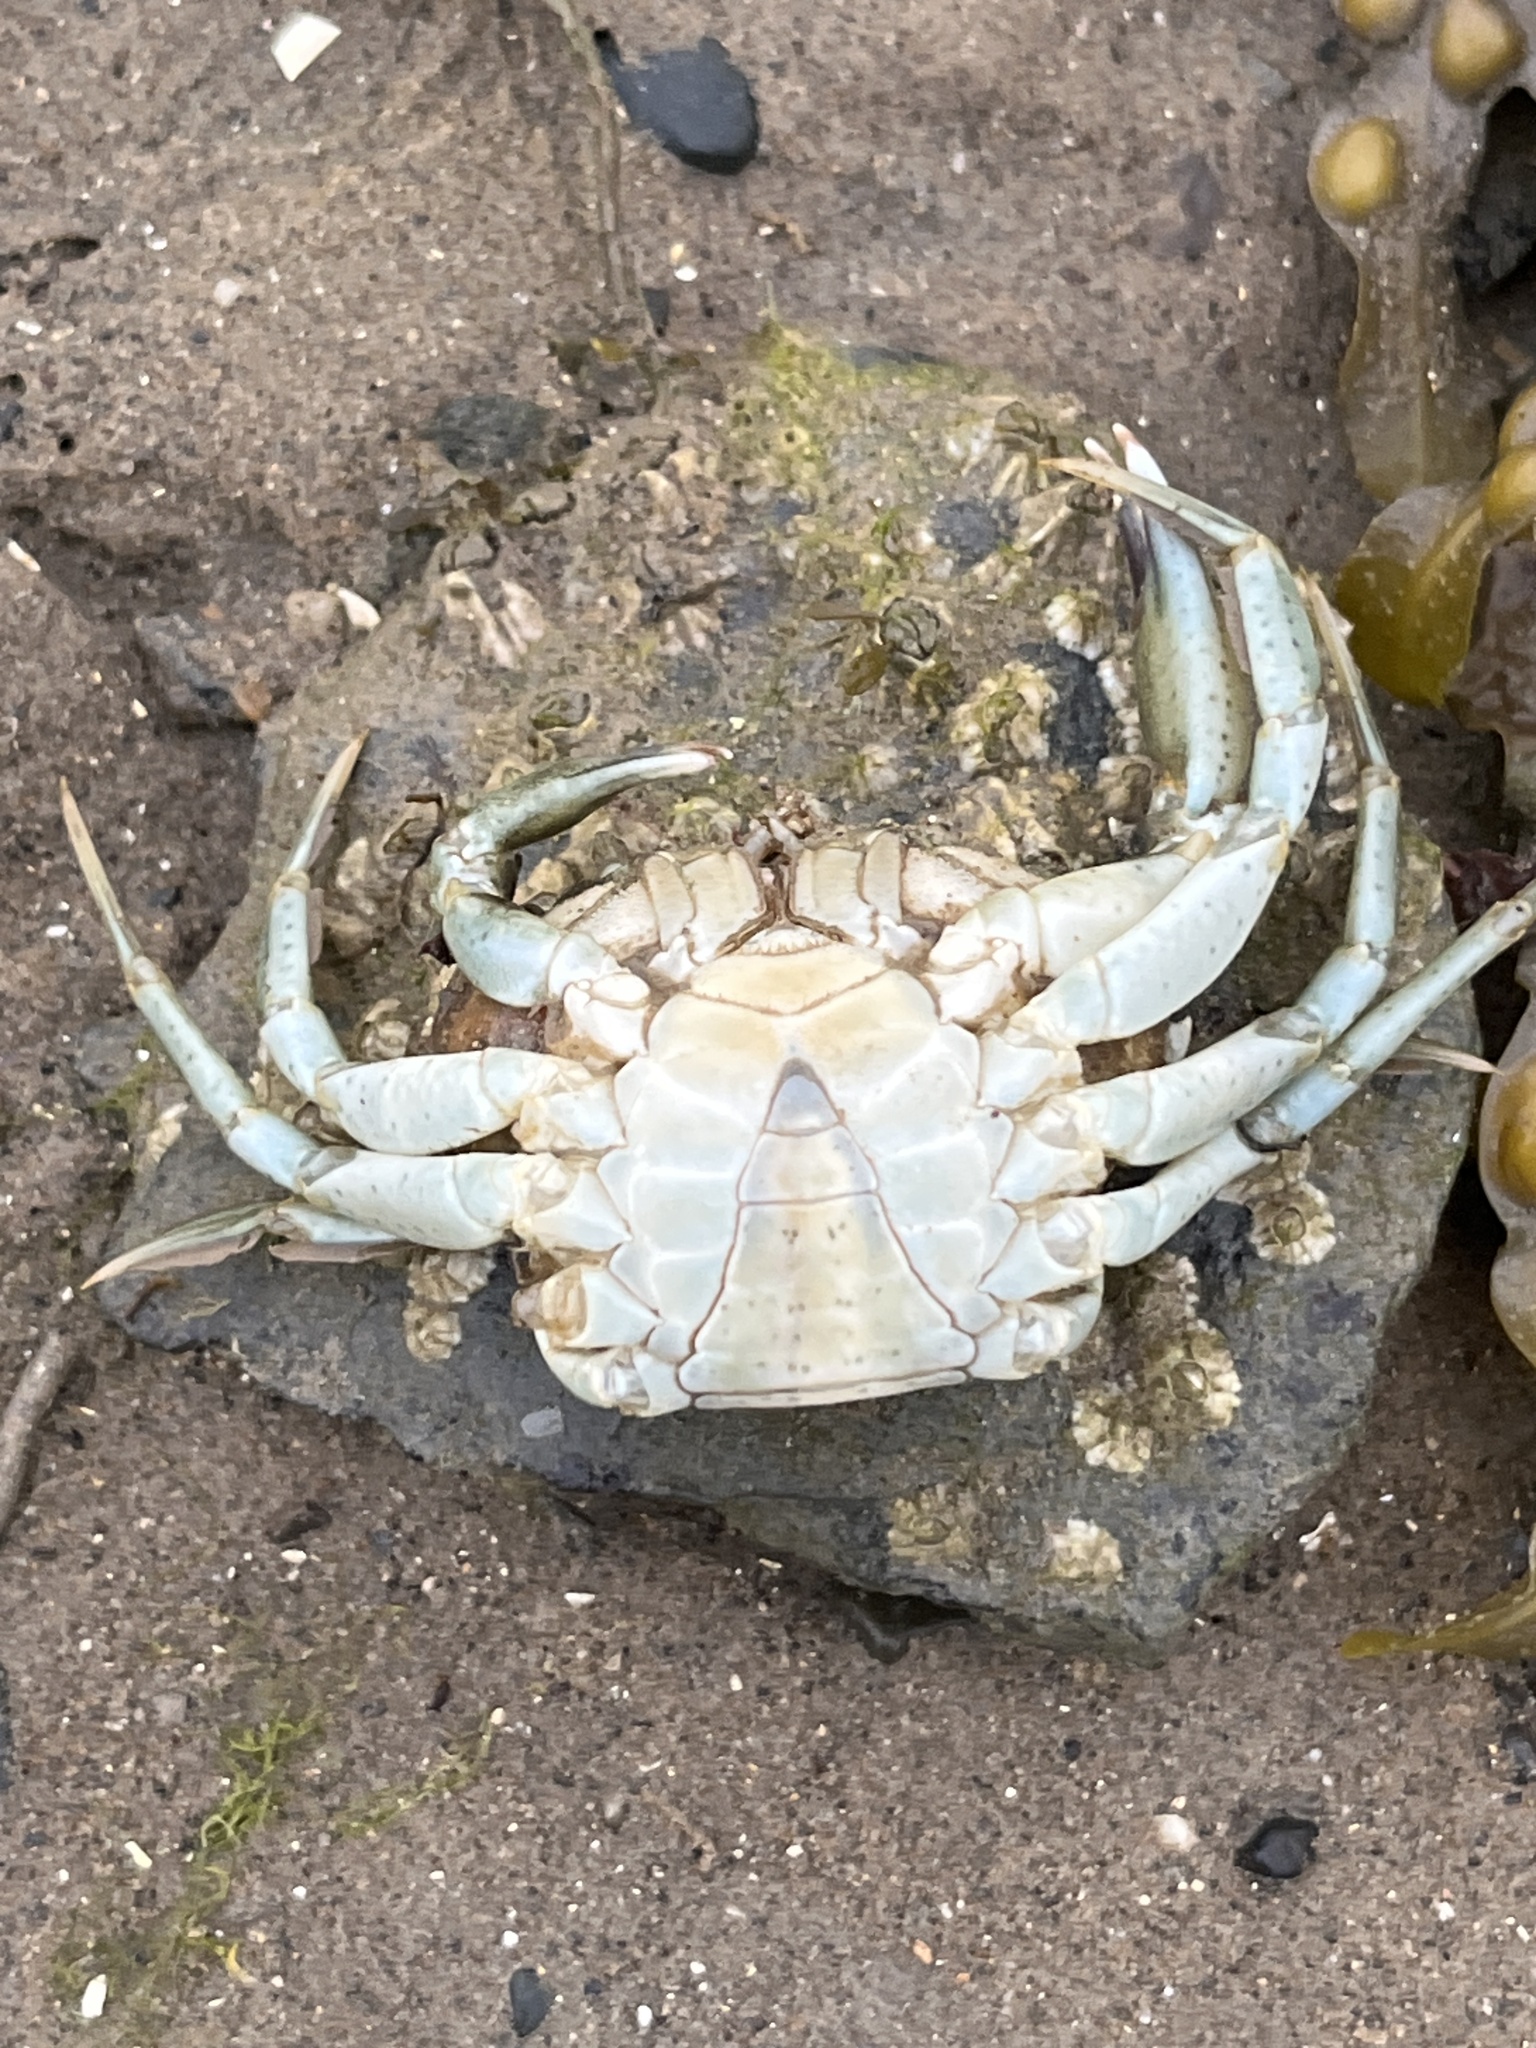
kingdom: Animalia
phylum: Arthropoda
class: Malacostraca
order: Decapoda
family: Carcinidae
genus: Carcinus
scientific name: Carcinus maenas
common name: European green crab
